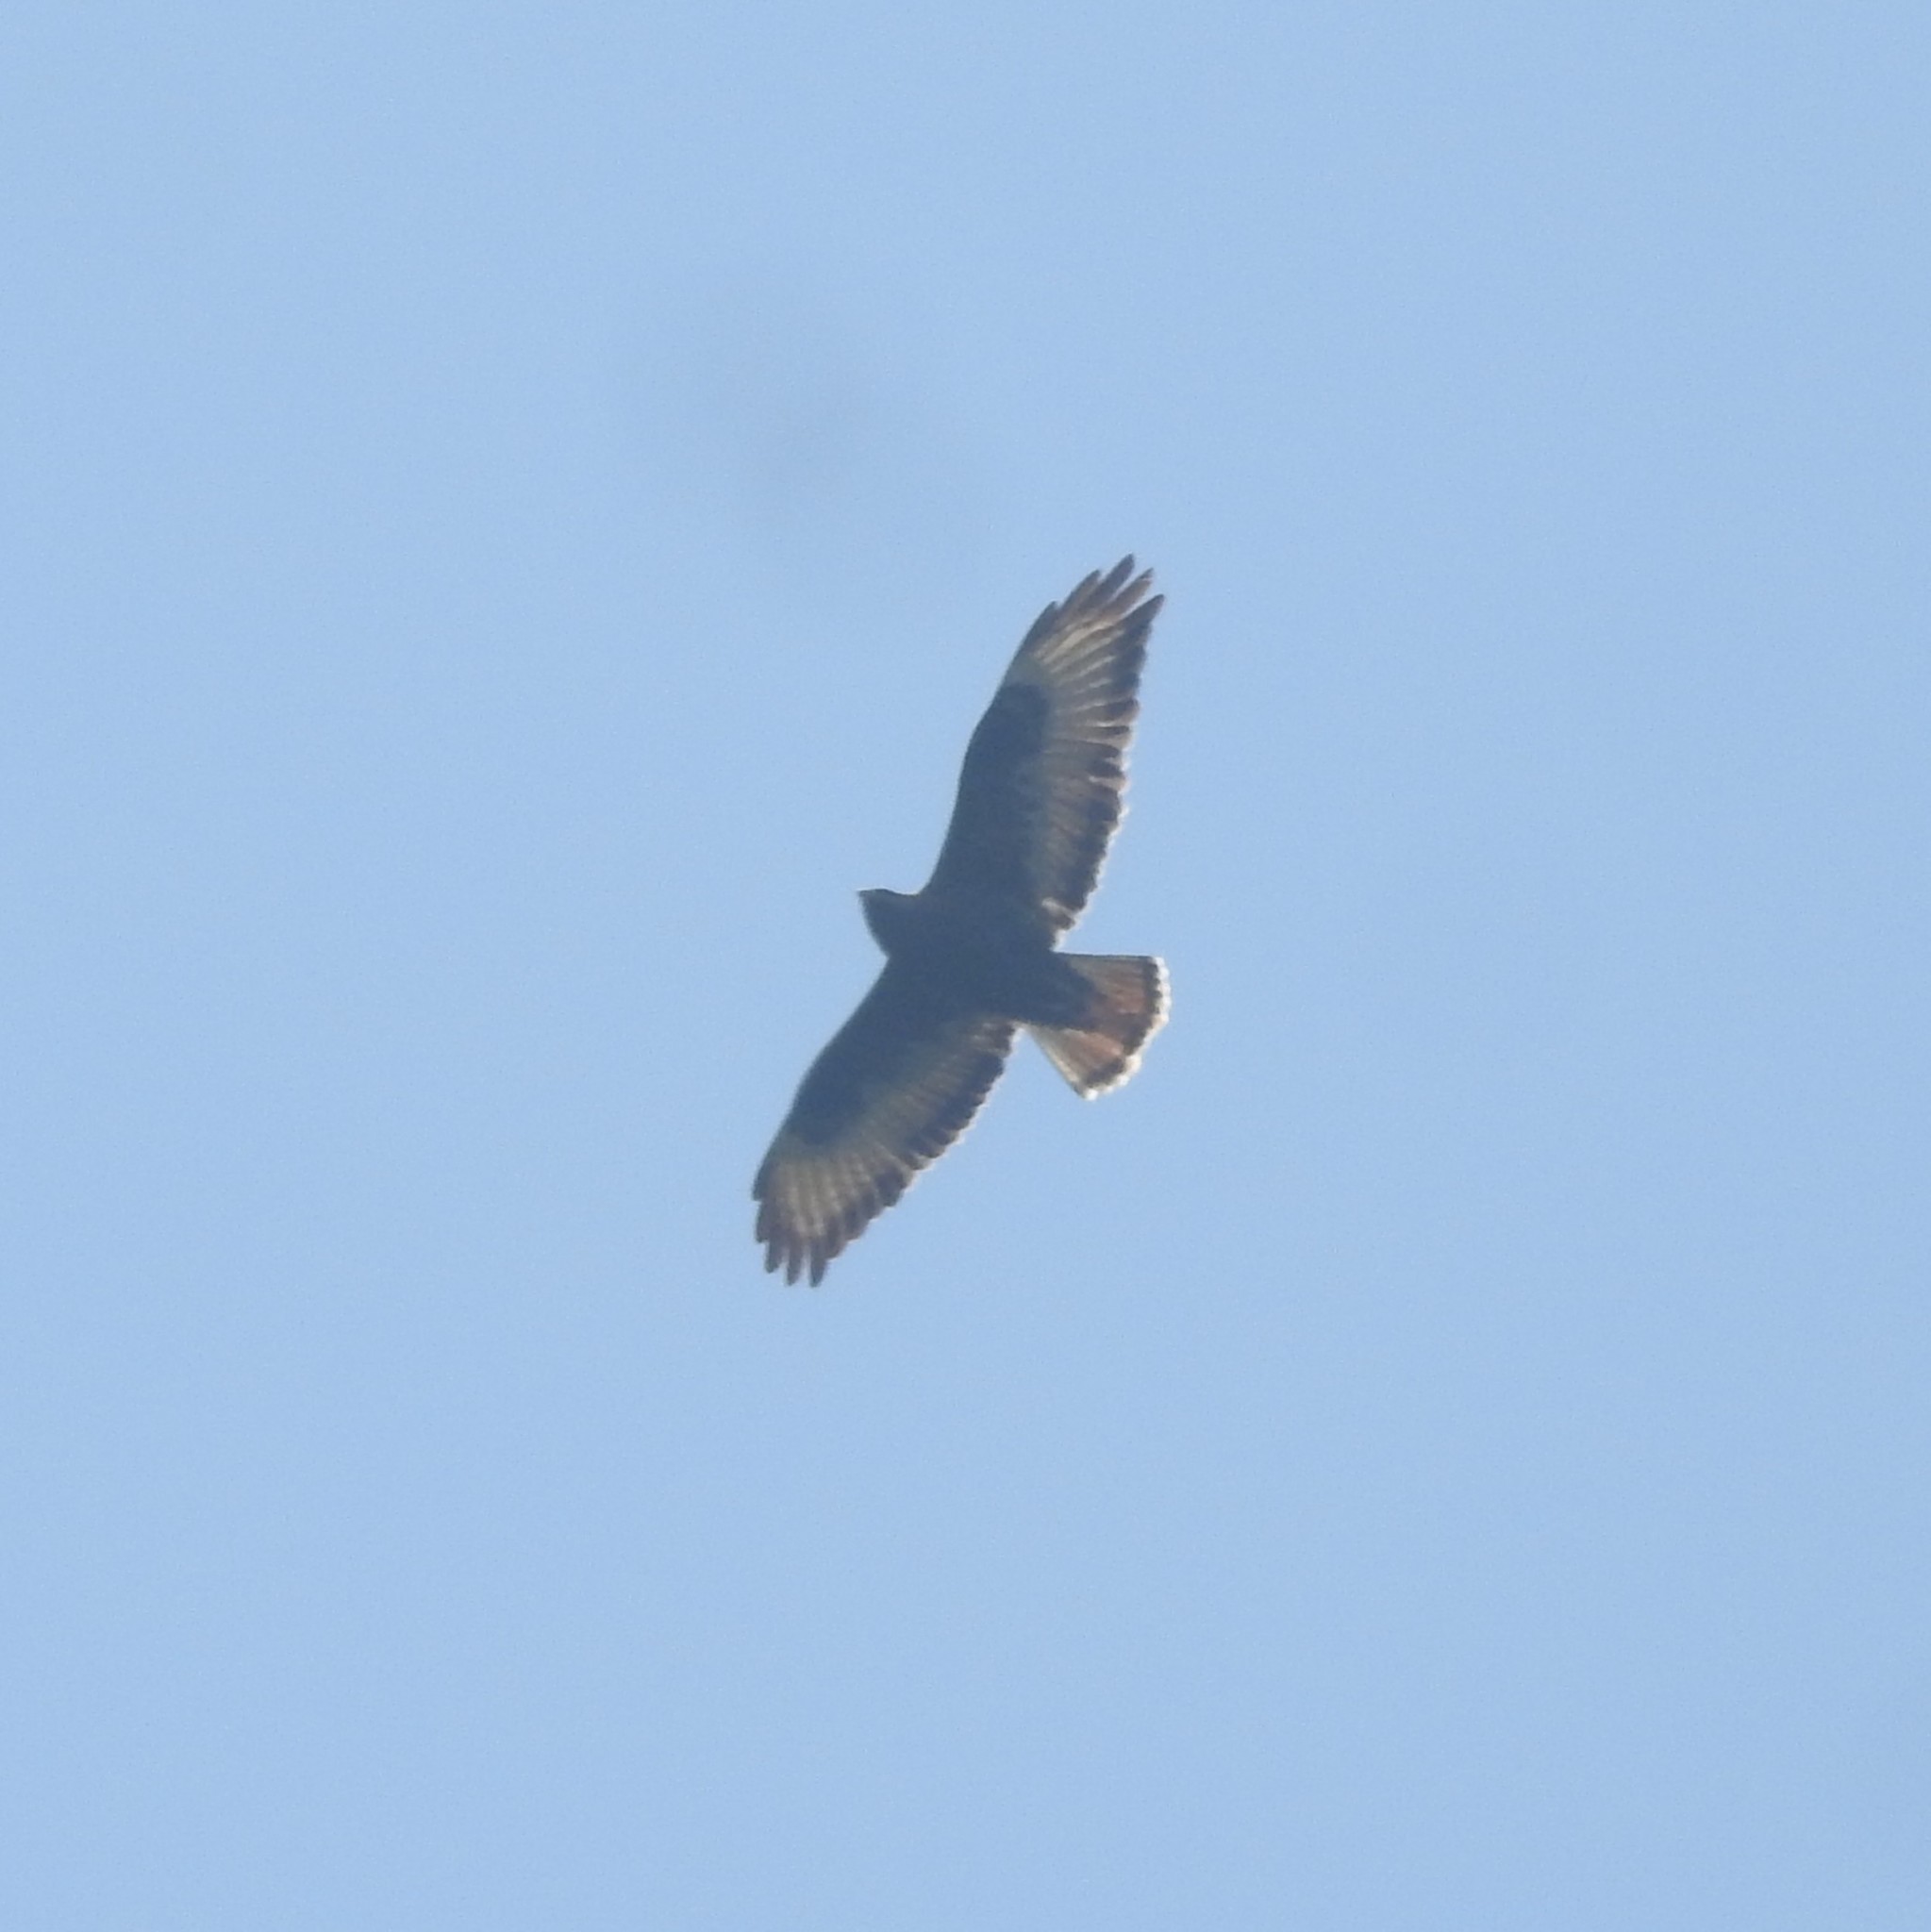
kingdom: Animalia
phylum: Chordata
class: Aves
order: Accipitriformes
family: Accipitridae
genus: Buteo
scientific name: Buteo buteo
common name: Common buzzard
